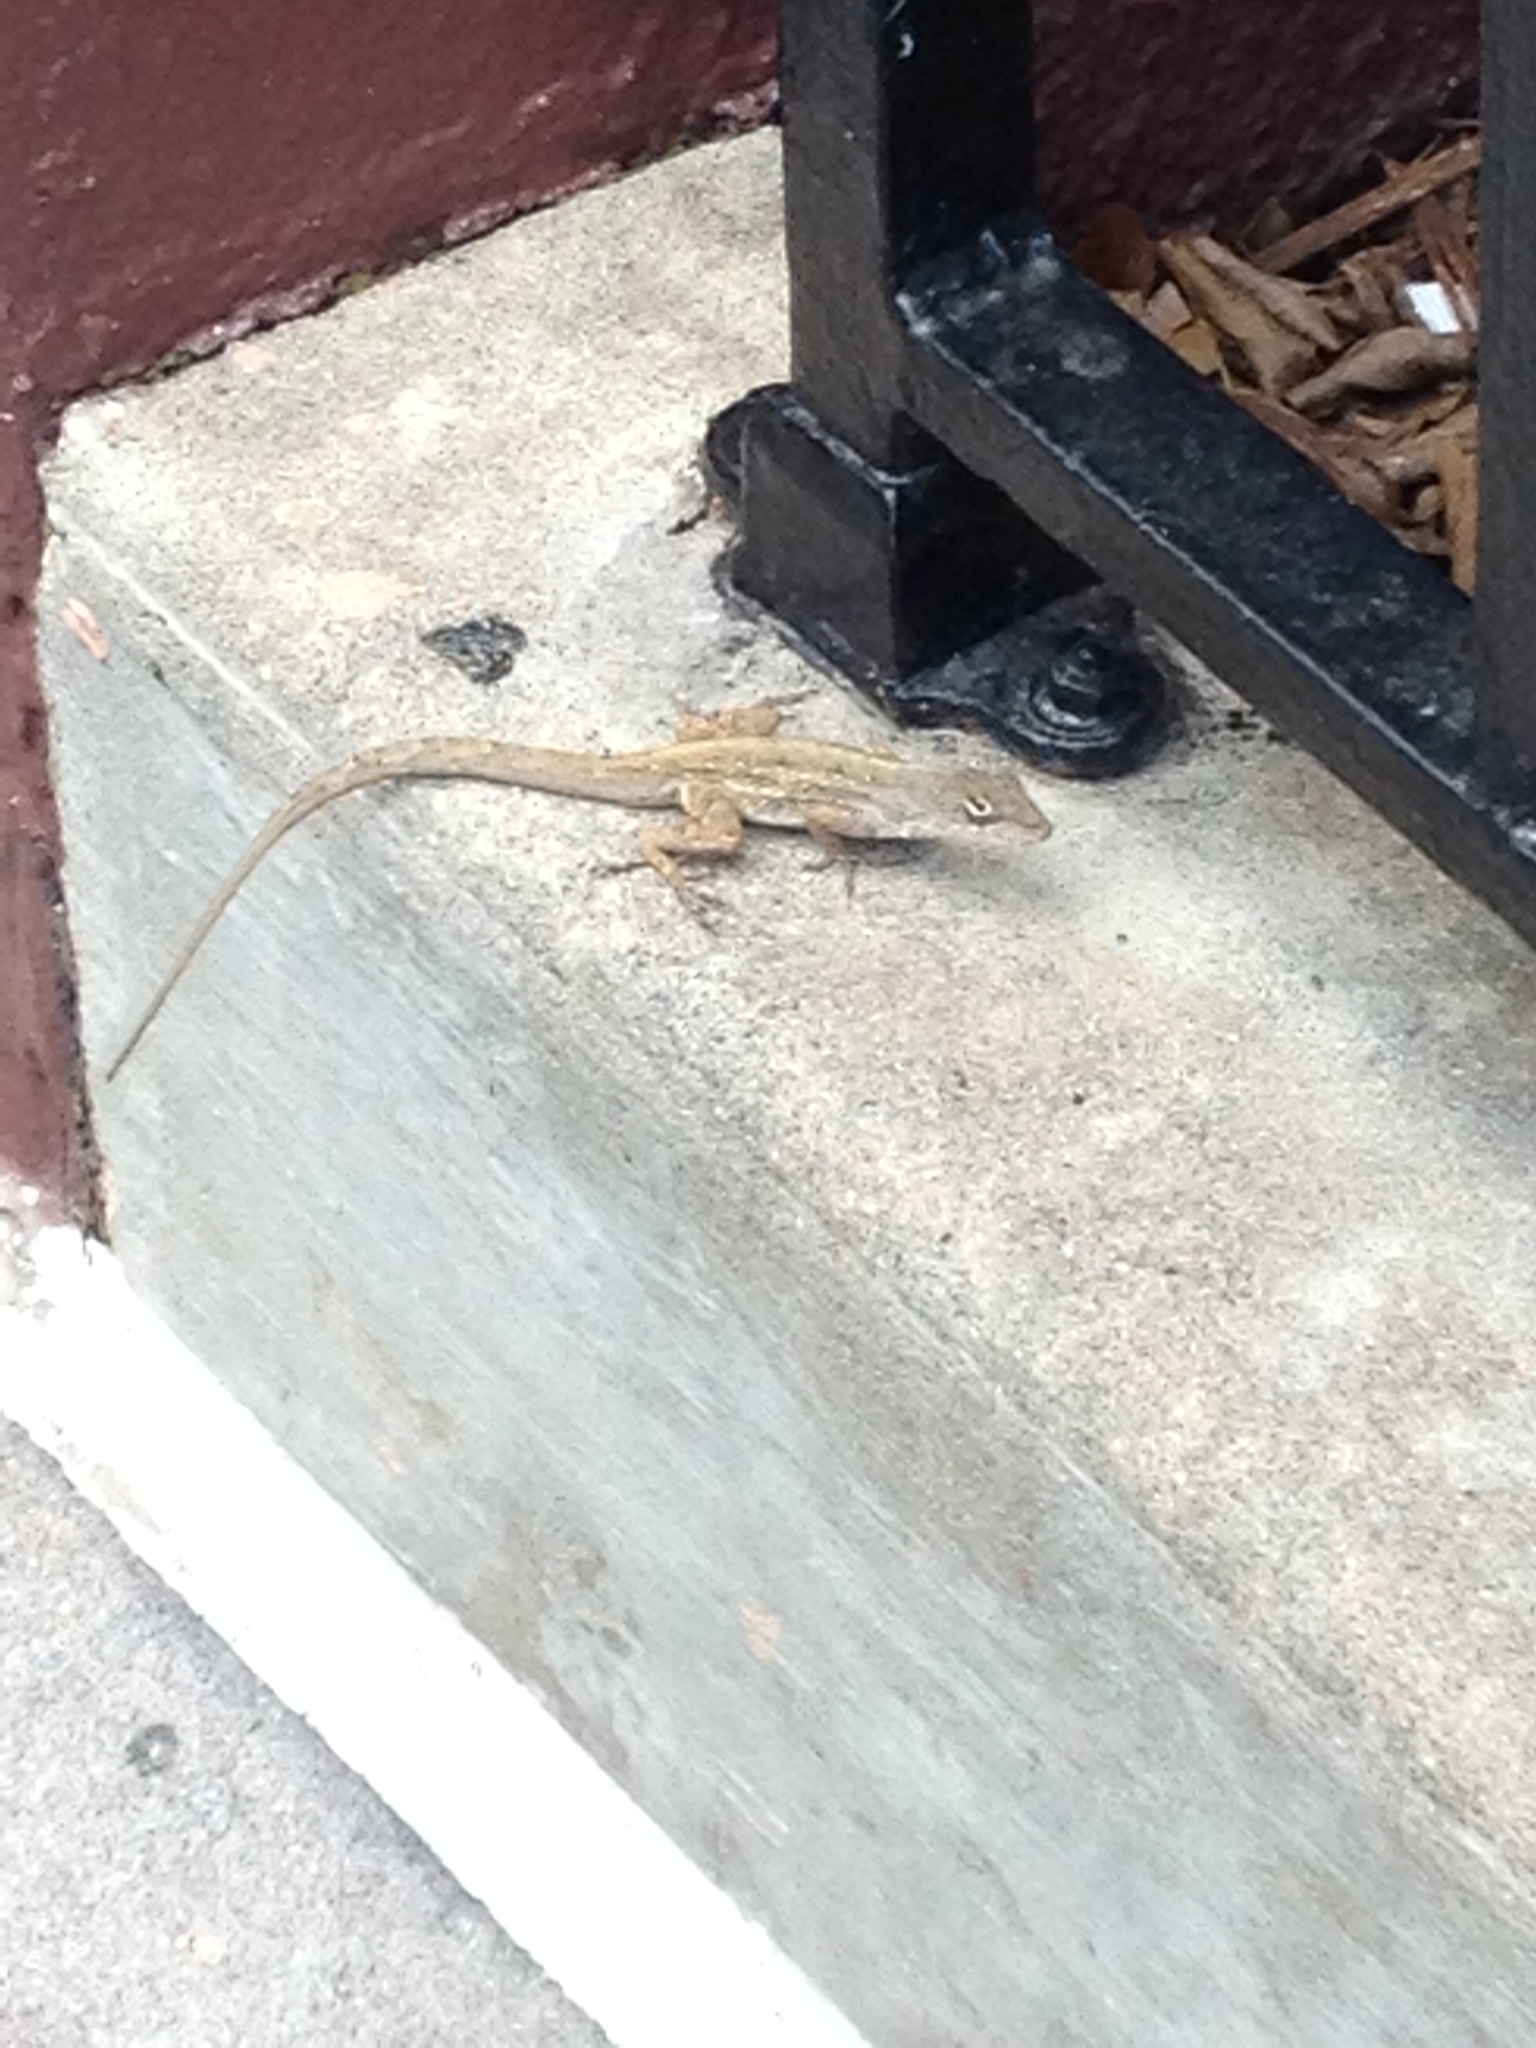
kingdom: Animalia
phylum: Chordata
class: Squamata
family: Dactyloidae
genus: Anolis
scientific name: Anolis sagrei
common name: Brown anole
